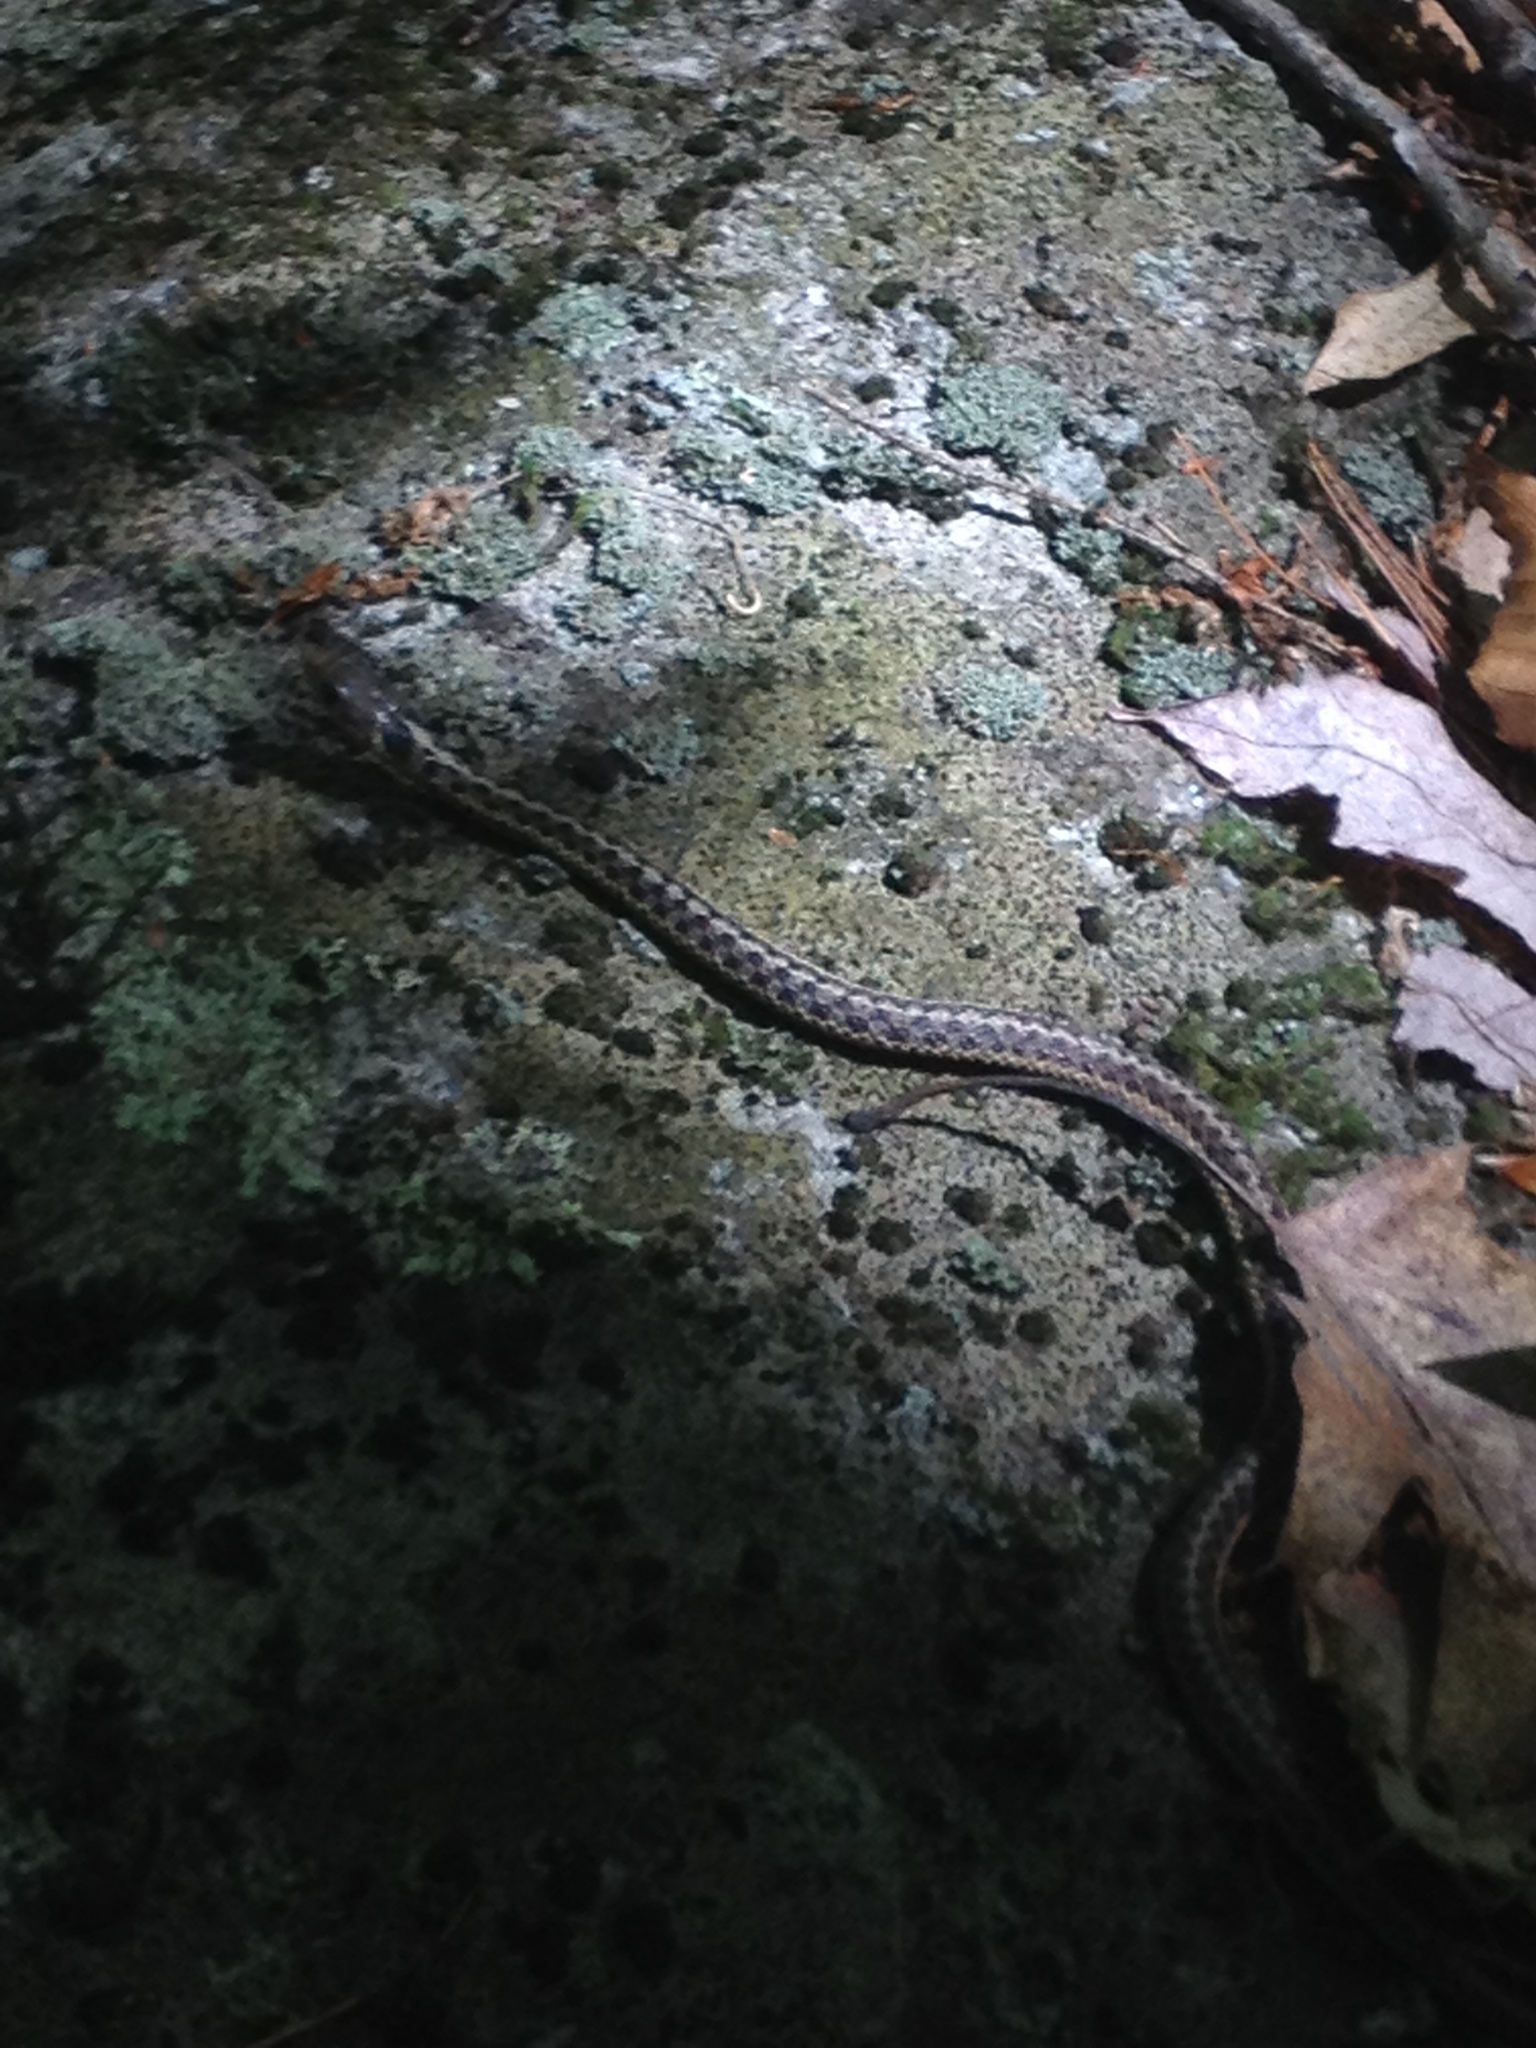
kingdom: Animalia
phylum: Chordata
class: Squamata
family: Colubridae
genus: Thamnophis
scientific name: Thamnophis sirtalis
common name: Common garter snake
